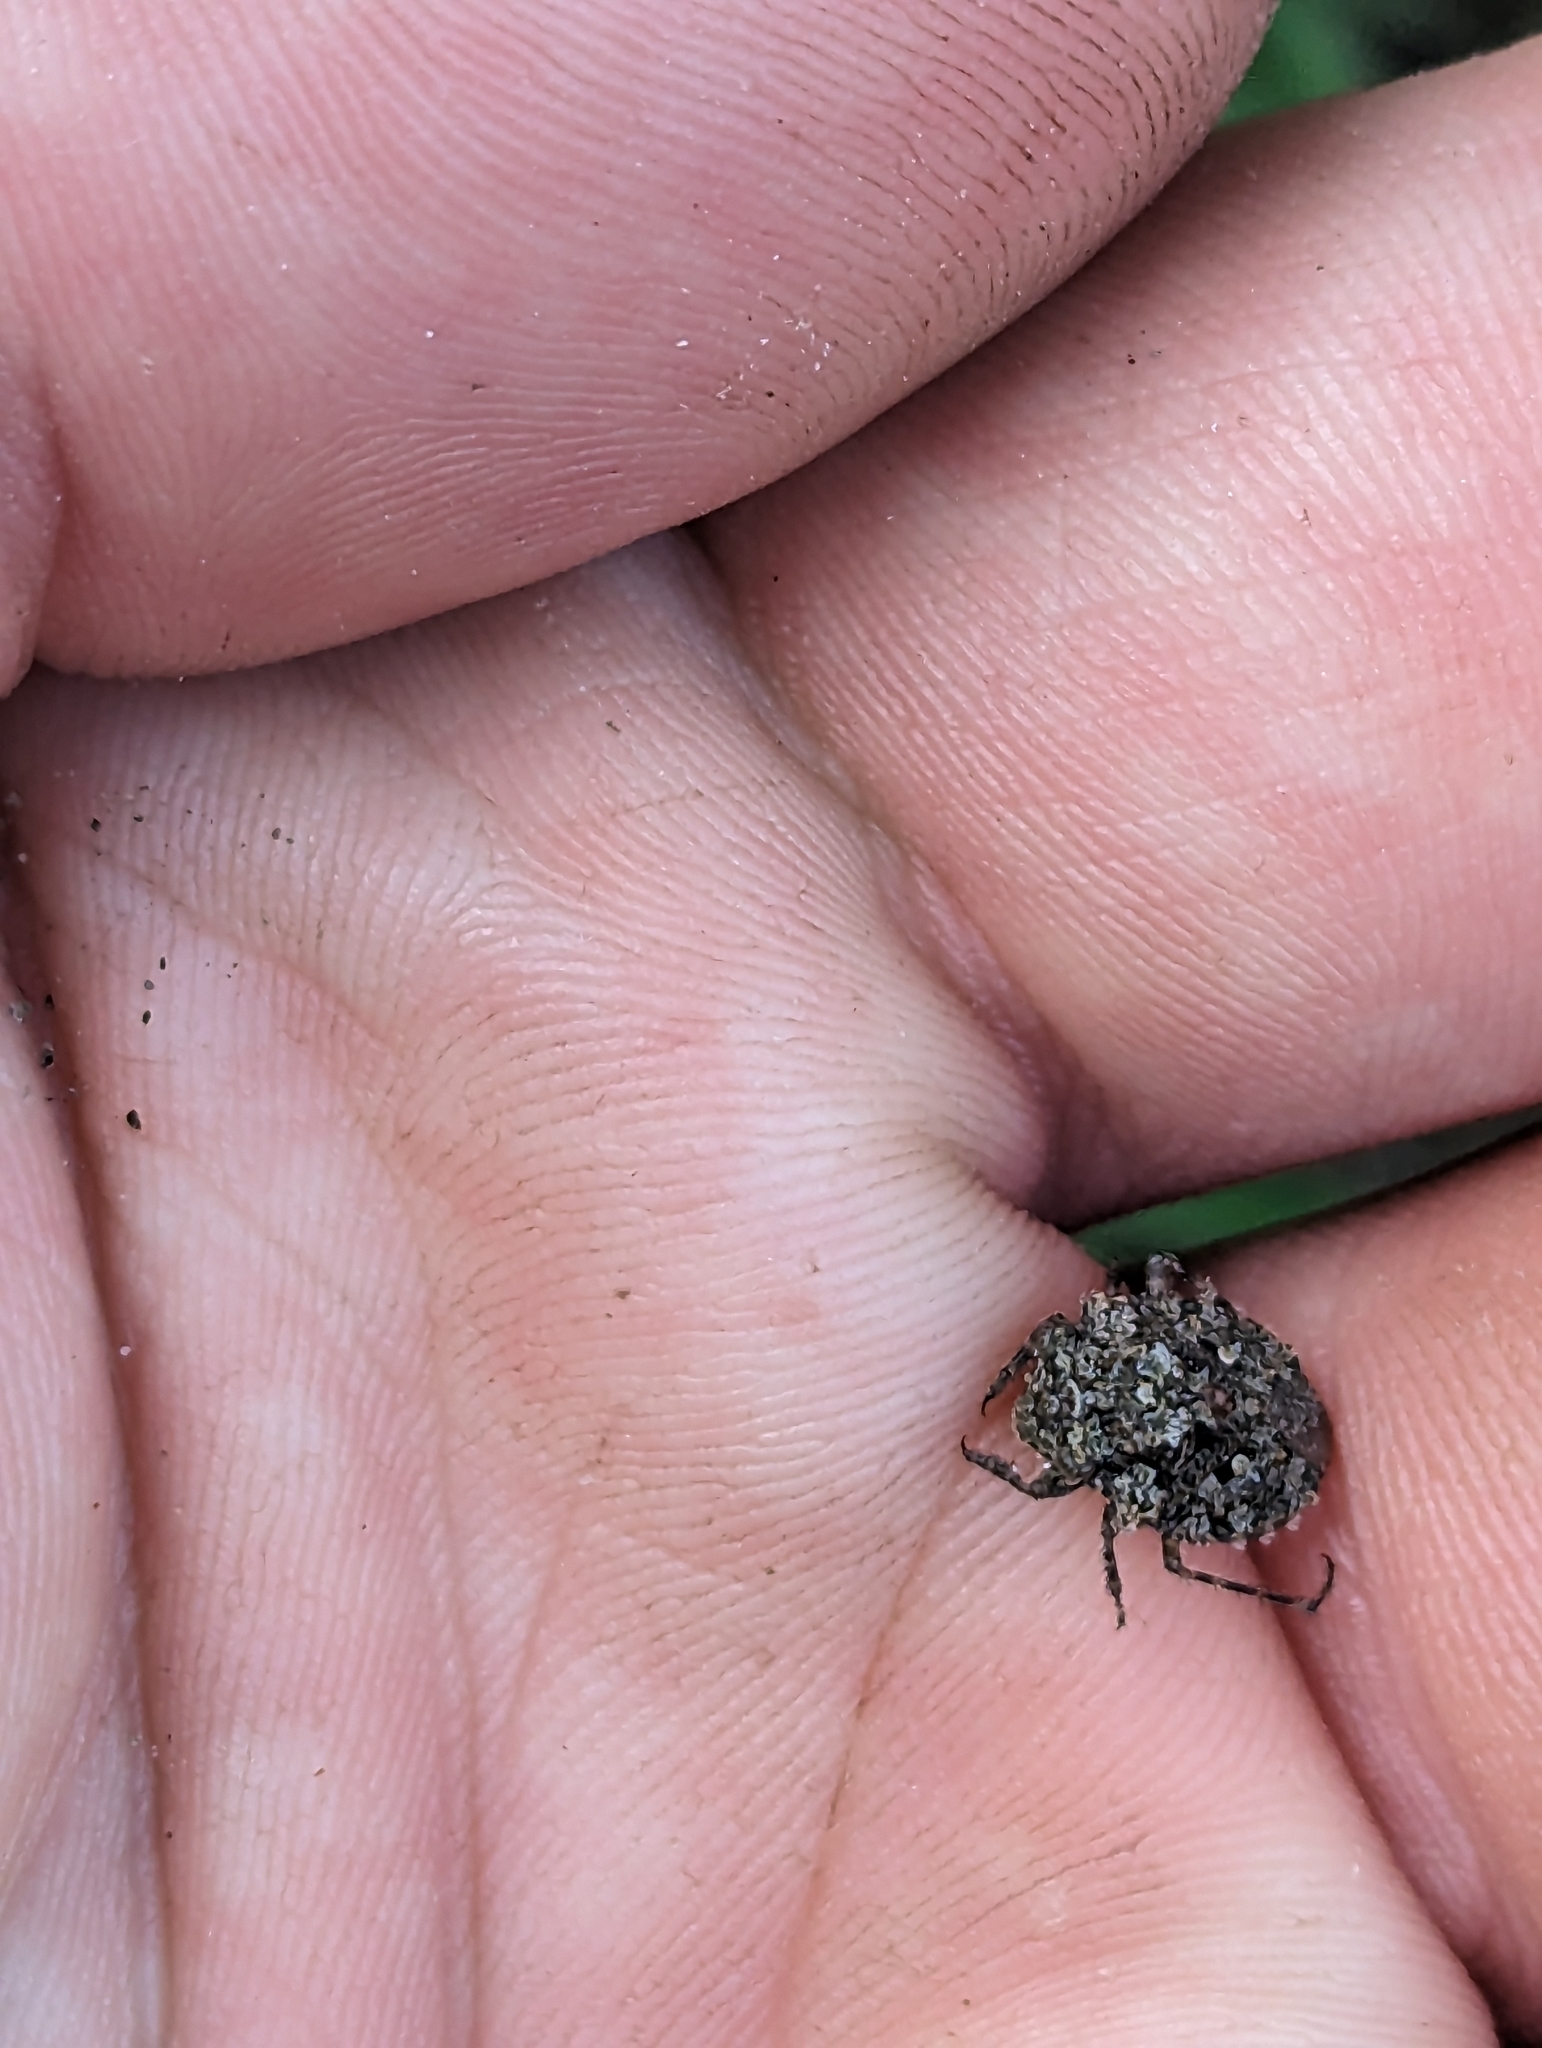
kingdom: Animalia
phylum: Arthropoda
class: Insecta
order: Hemiptera
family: Gelastocoridae
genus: Gelastocoris
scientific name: Gelastocoris oculatus
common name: Toad bug
